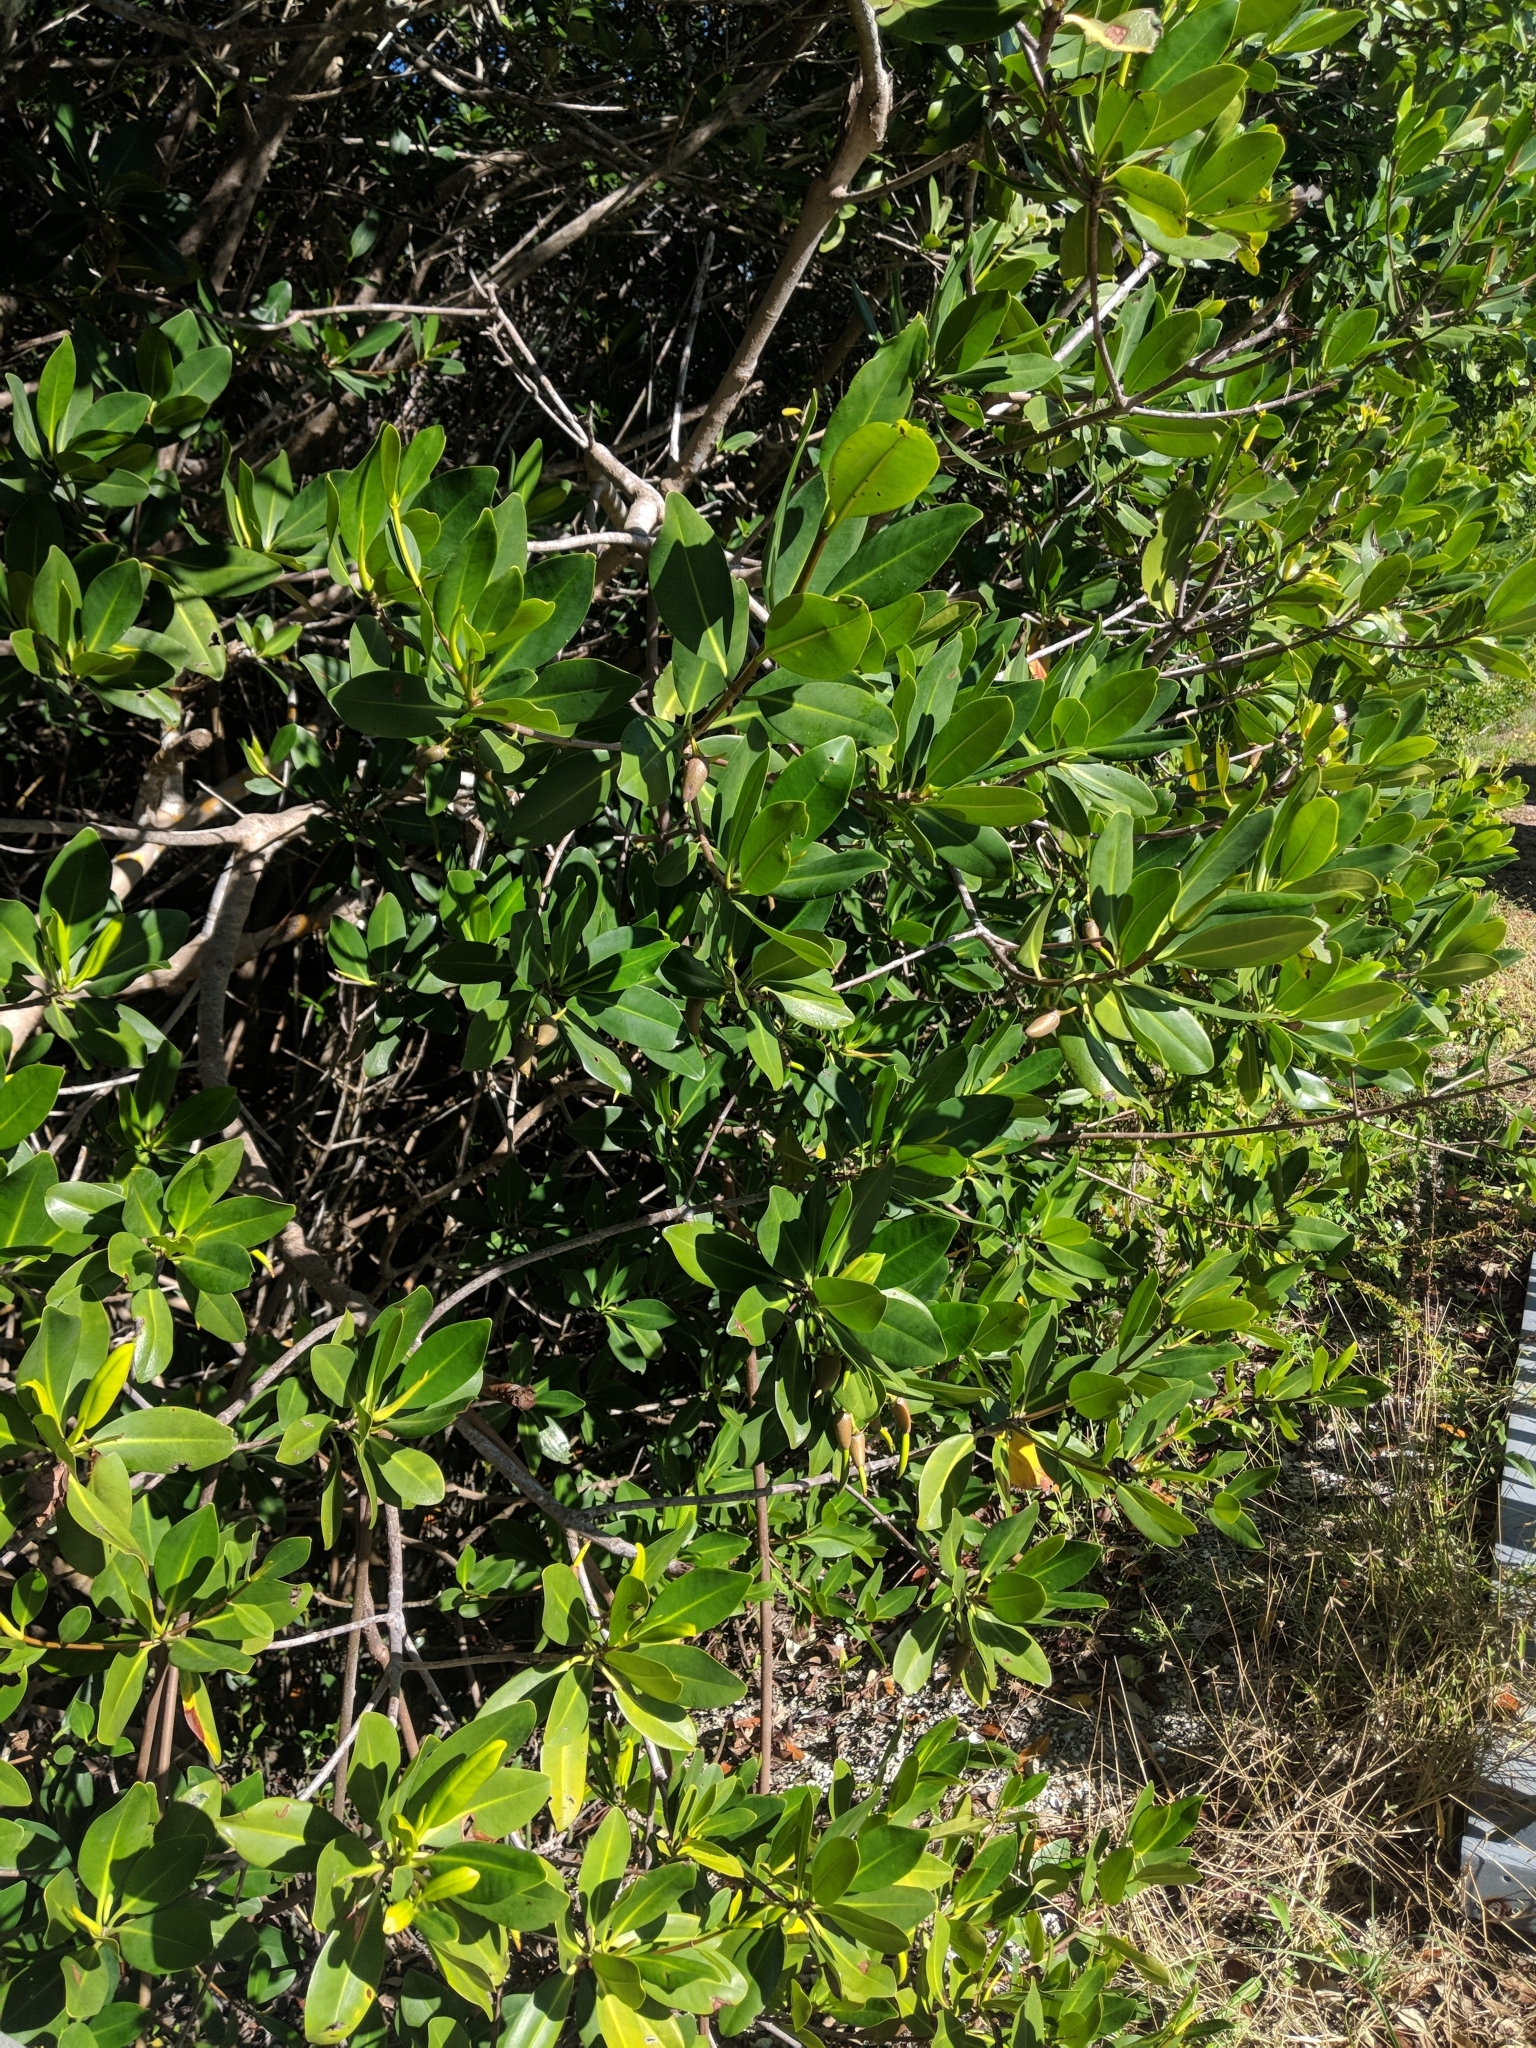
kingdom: Plantae
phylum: Tracheophyta
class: Magnoliopsida
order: Malpighiales
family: Rhizophoraceae
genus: Rhizophora
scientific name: Rhizophora mangle
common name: Red mangrove
